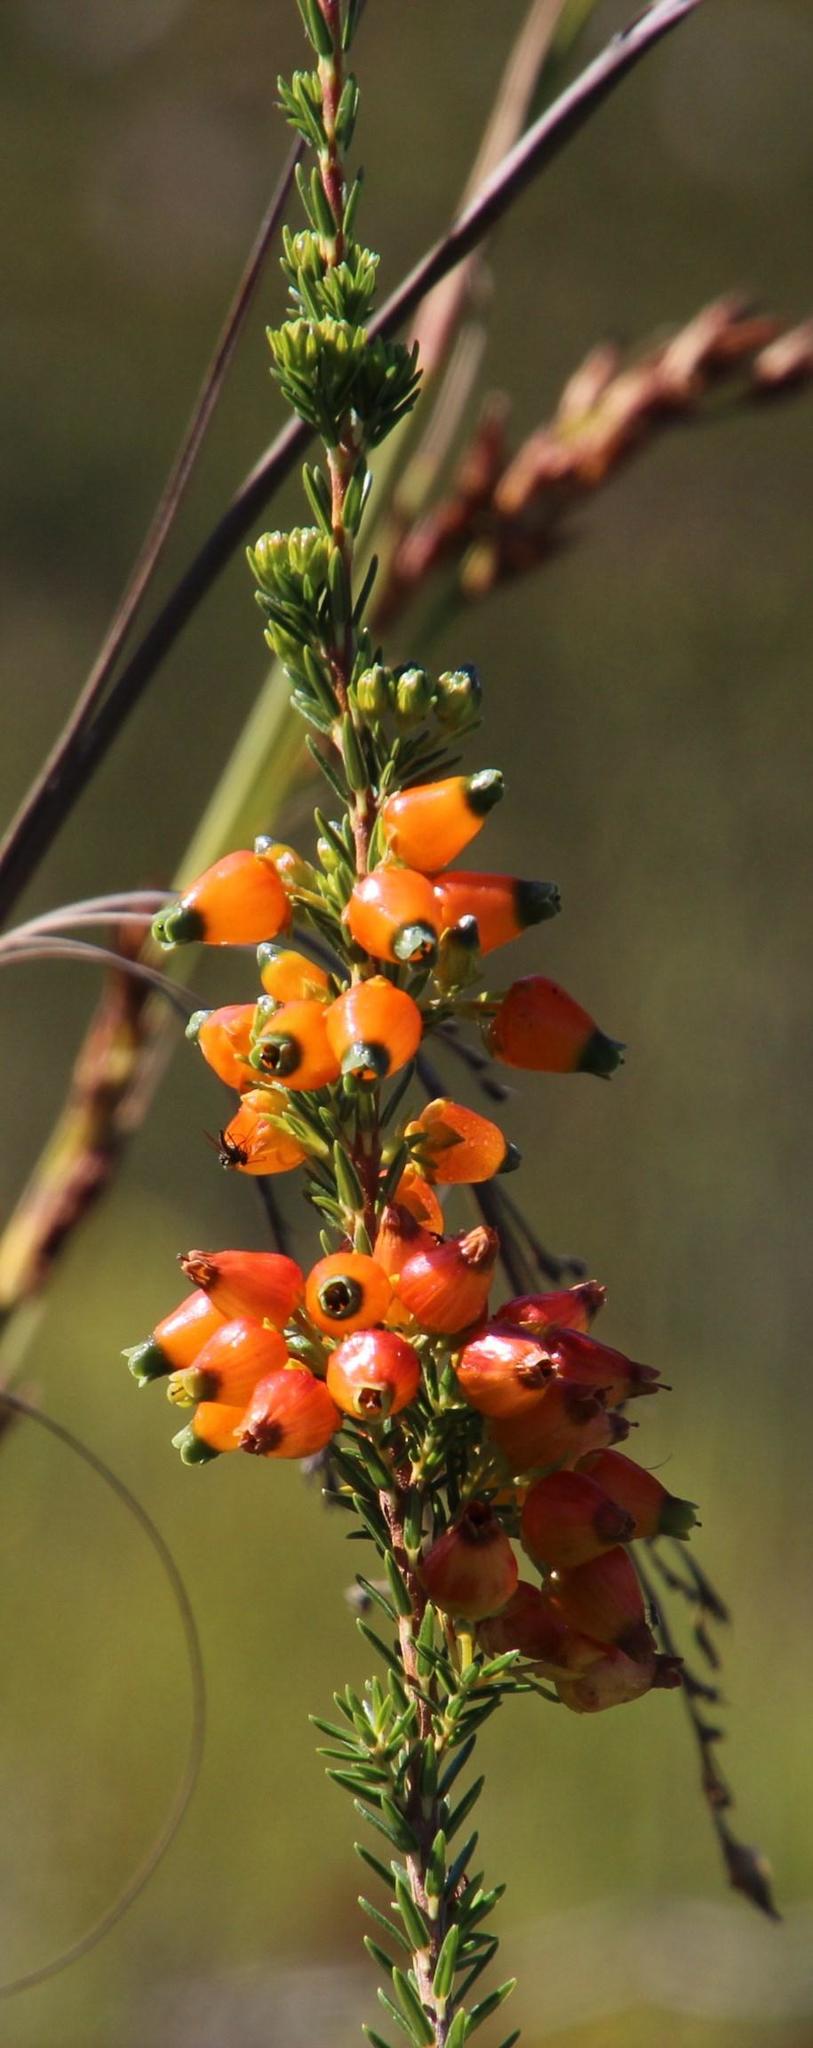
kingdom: Plantae
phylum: Tracheophyta
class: Magnoliopsida
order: Ericales
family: Ericaceae
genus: Erica
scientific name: Erica blenna
